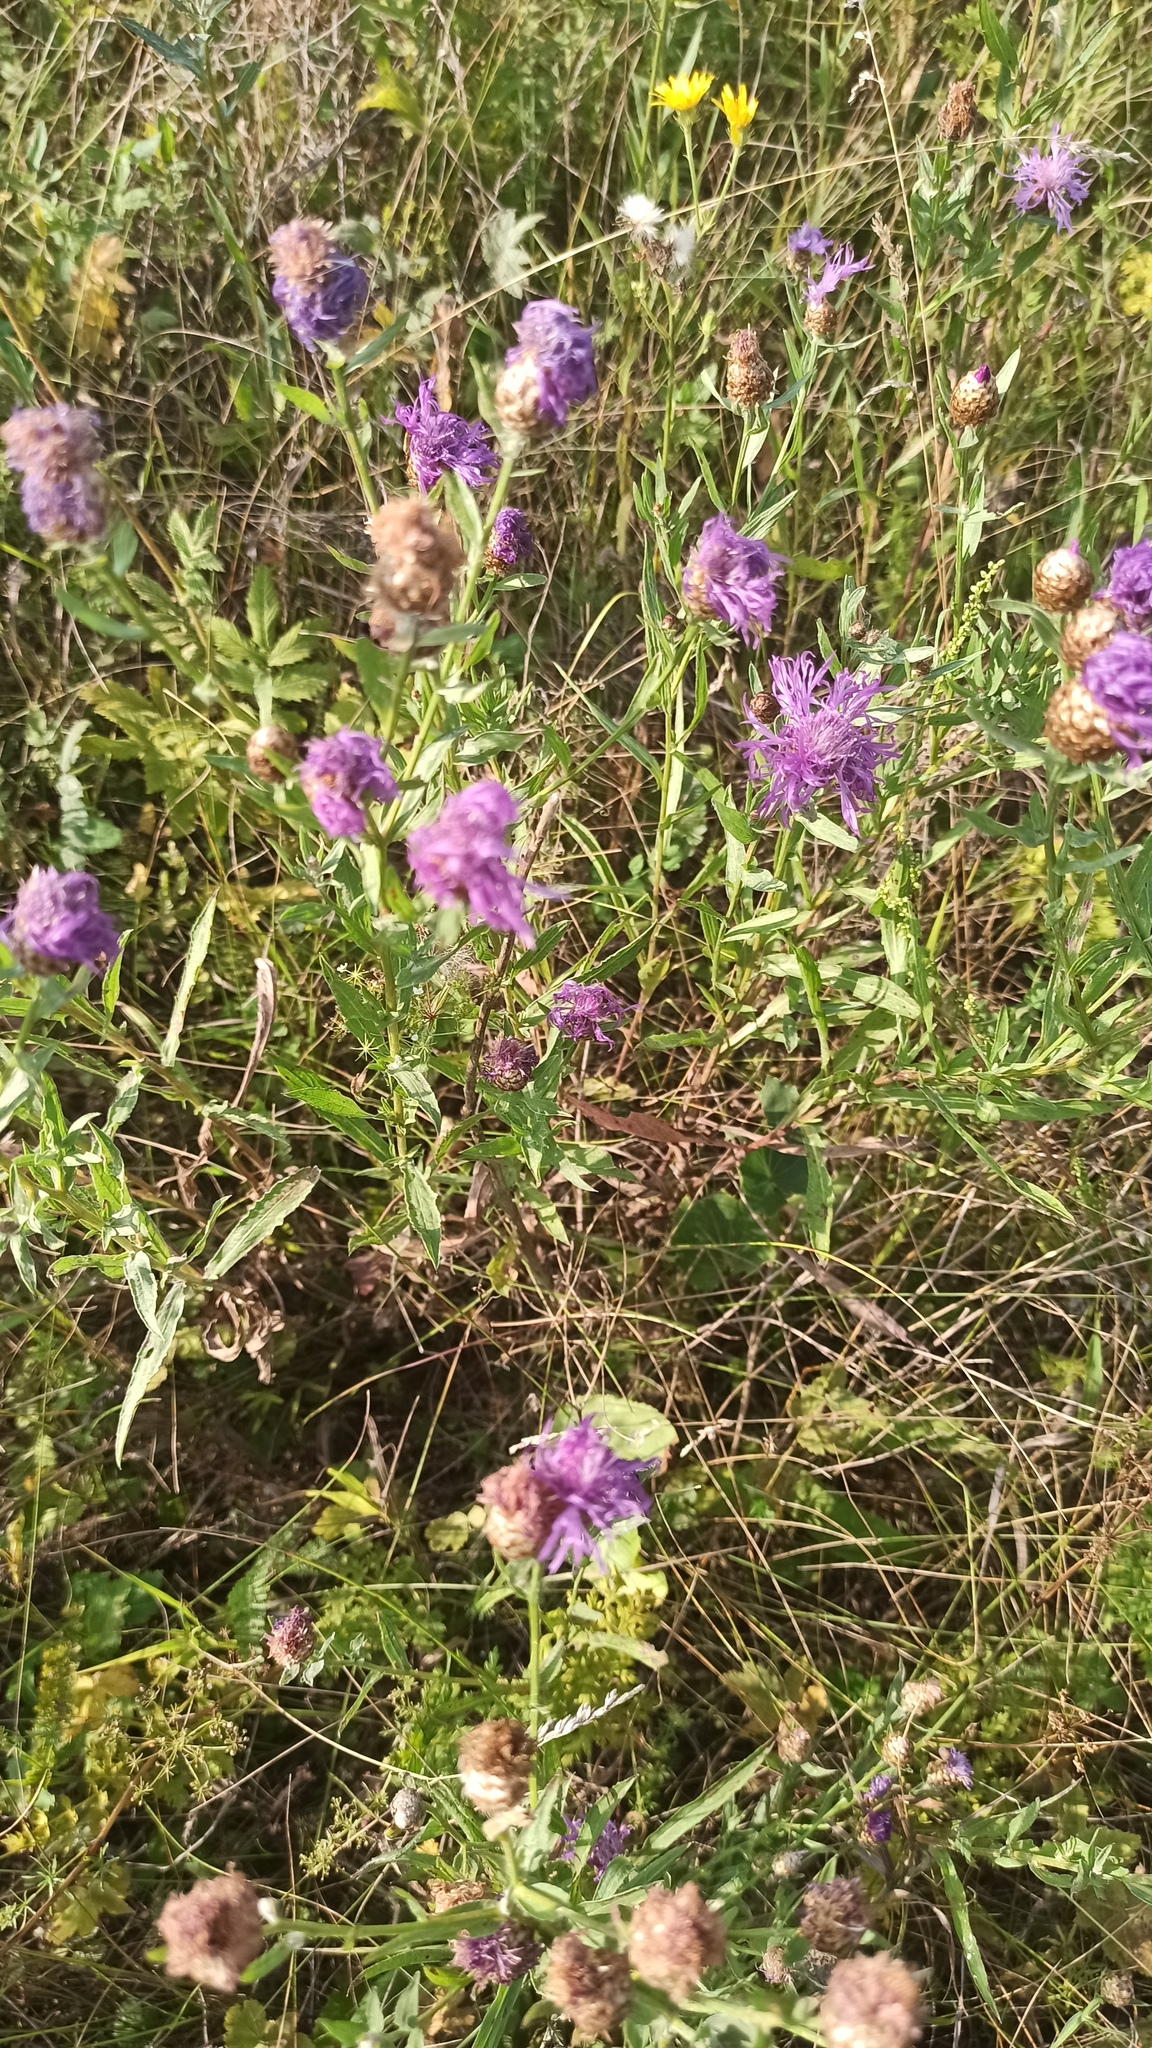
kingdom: Plantae
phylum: Tracheophyta
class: Magnoliopsida
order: Asterales
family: Asteraceae
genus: Centaurea
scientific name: Centaurea jacea
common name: Brown knapweed
